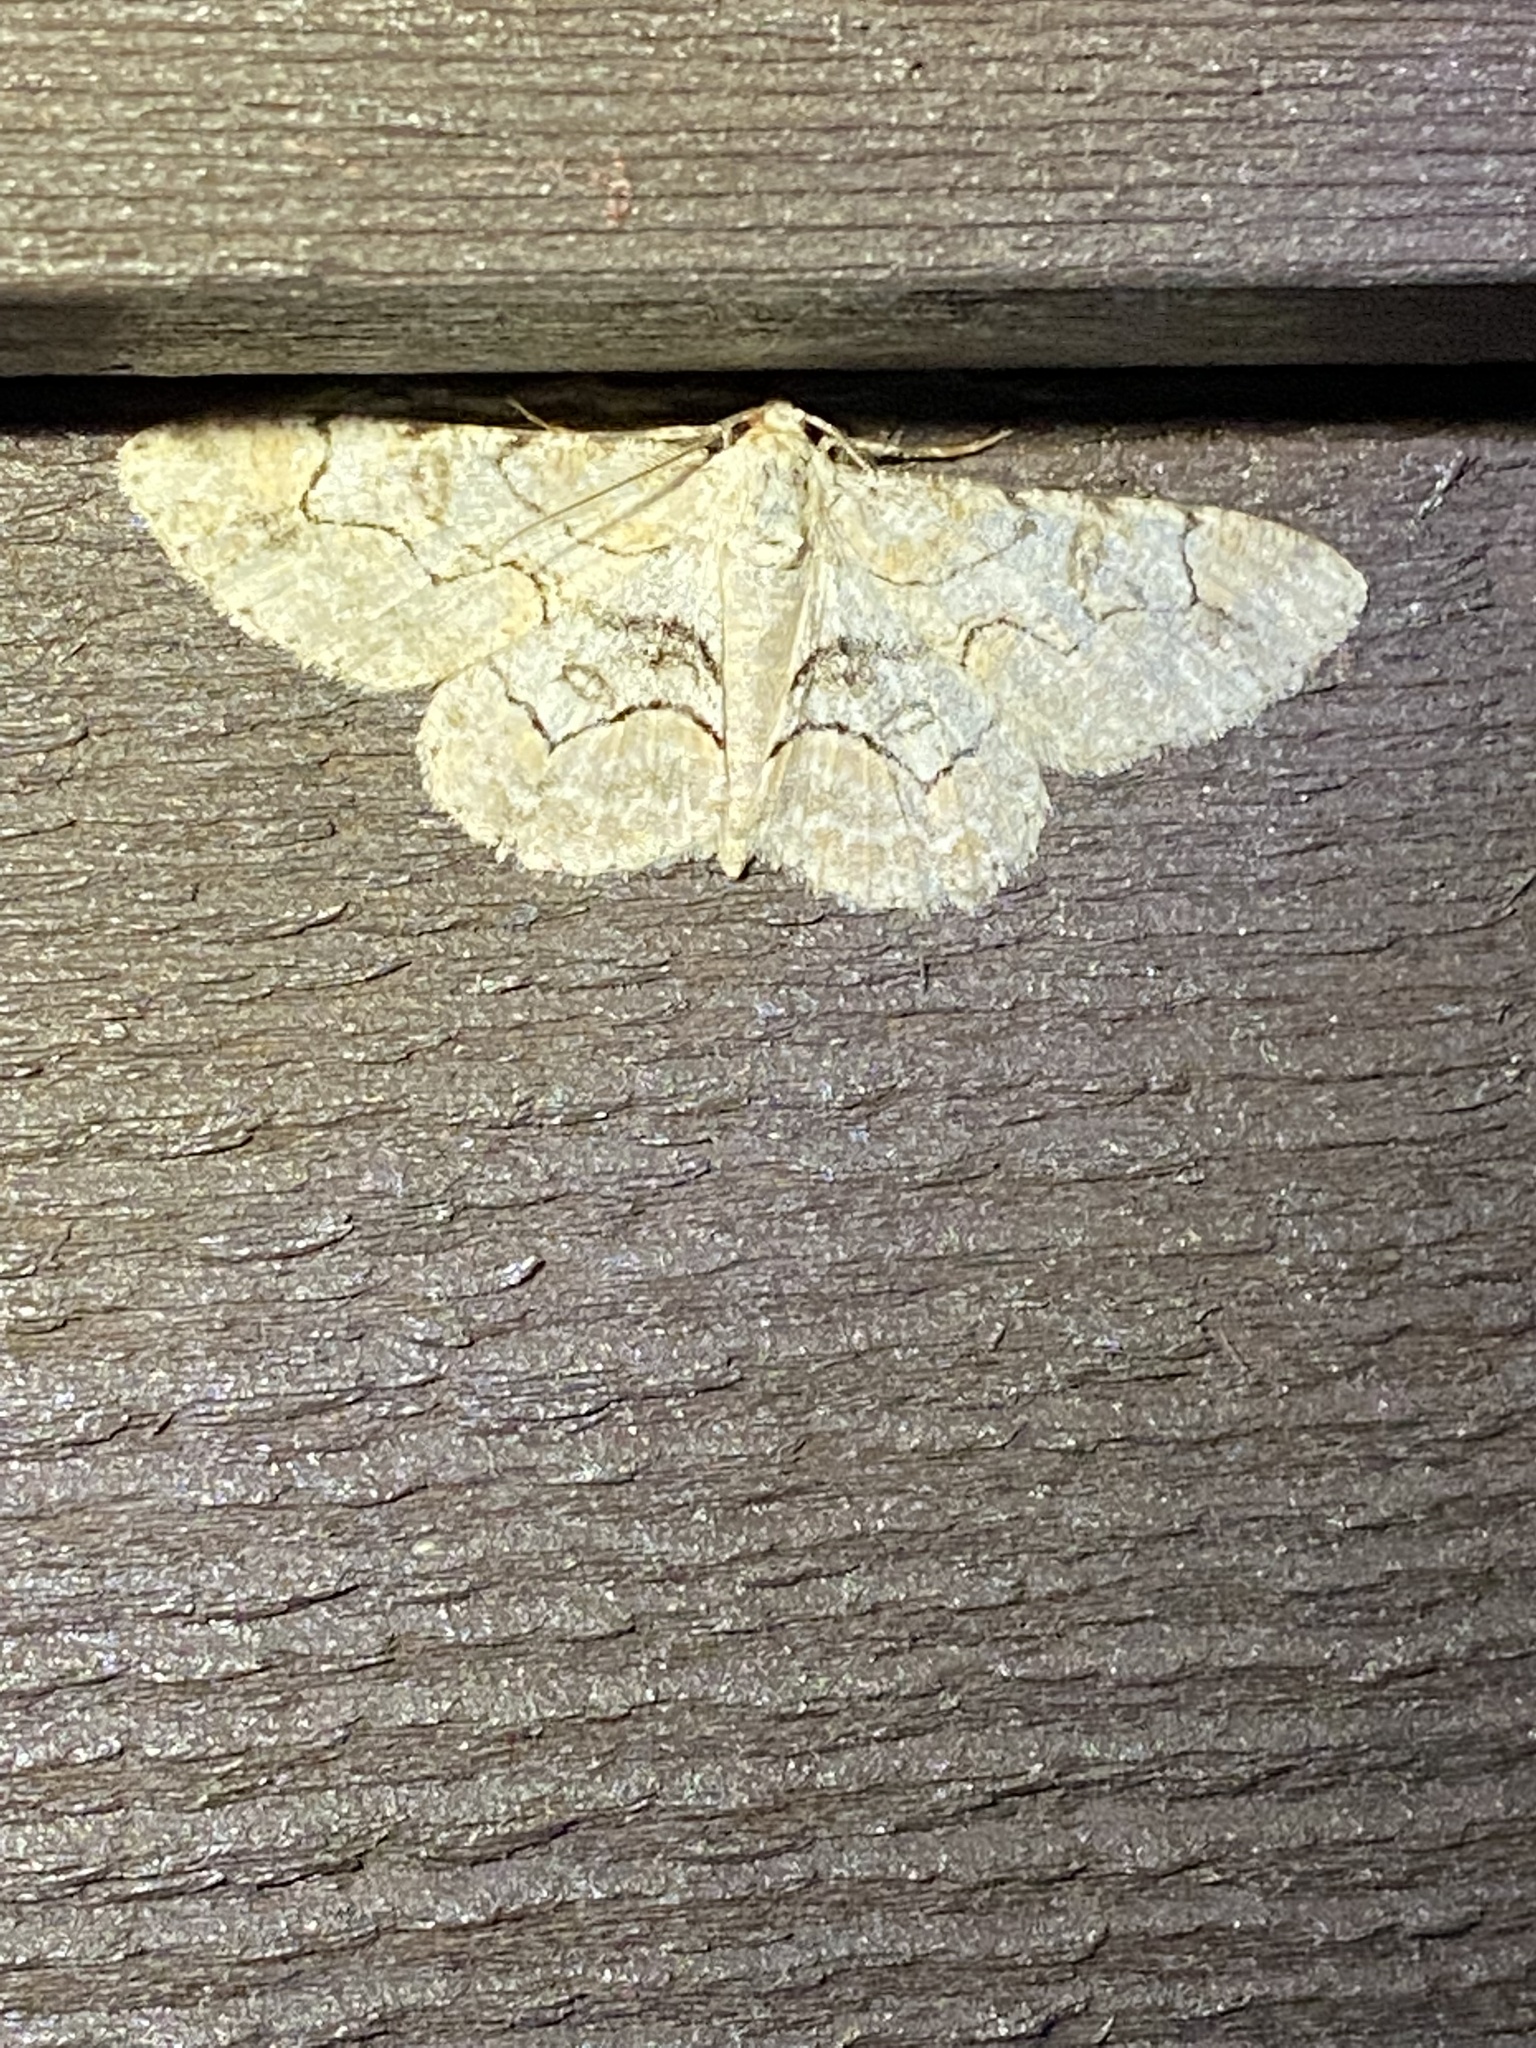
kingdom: Animalia
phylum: Arthropoda
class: Insecta
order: Lepidoptera
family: Geometridae
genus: Iridopsis
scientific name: Iridopsis larvaria
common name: Bent-line gray
